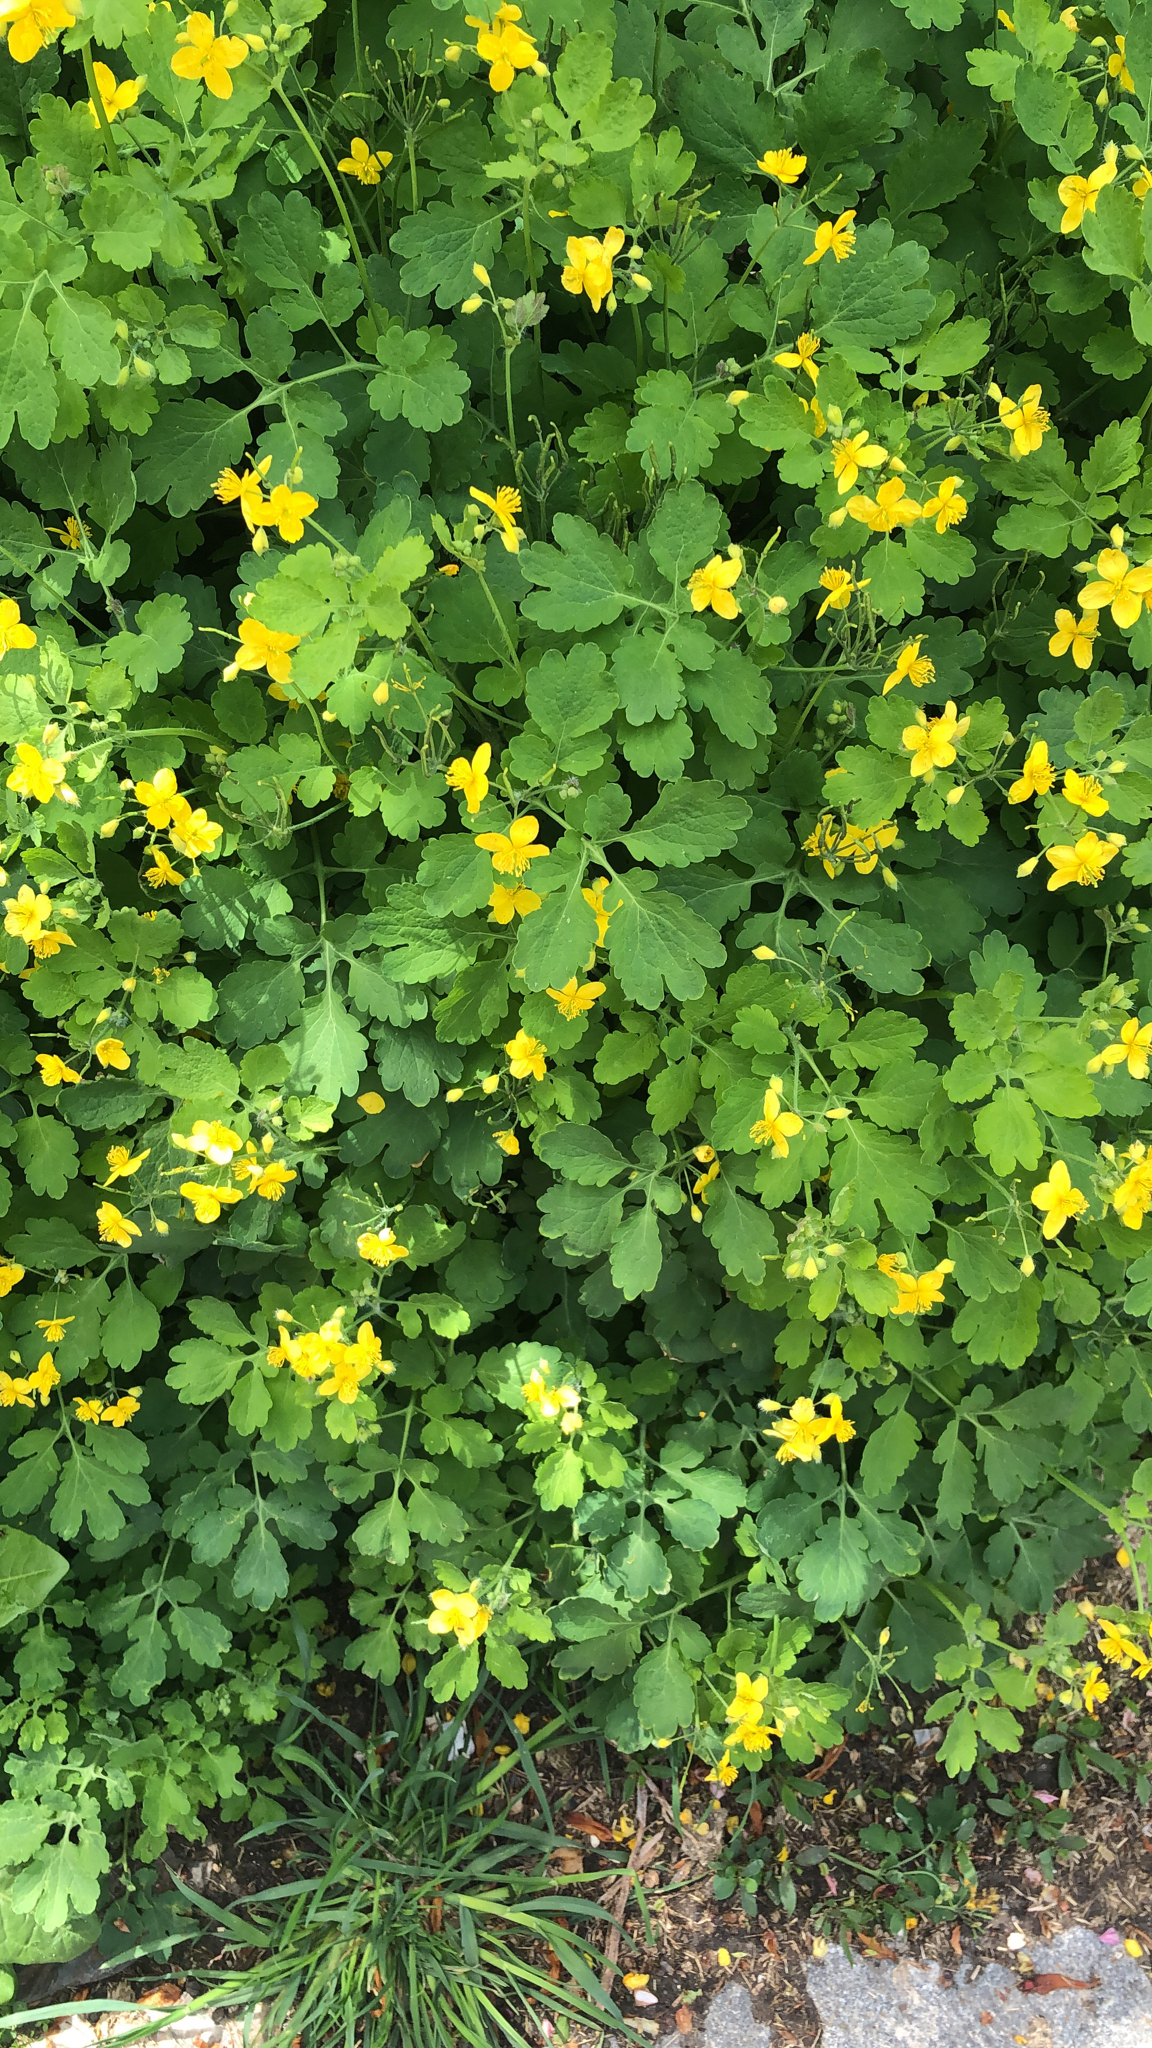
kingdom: Plantae
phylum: Tracheophyta
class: Magnoliopsida
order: Ranunculales
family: Papaveraceae
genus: Chelidonium
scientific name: Chelidonium majus
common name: Greater celandine
